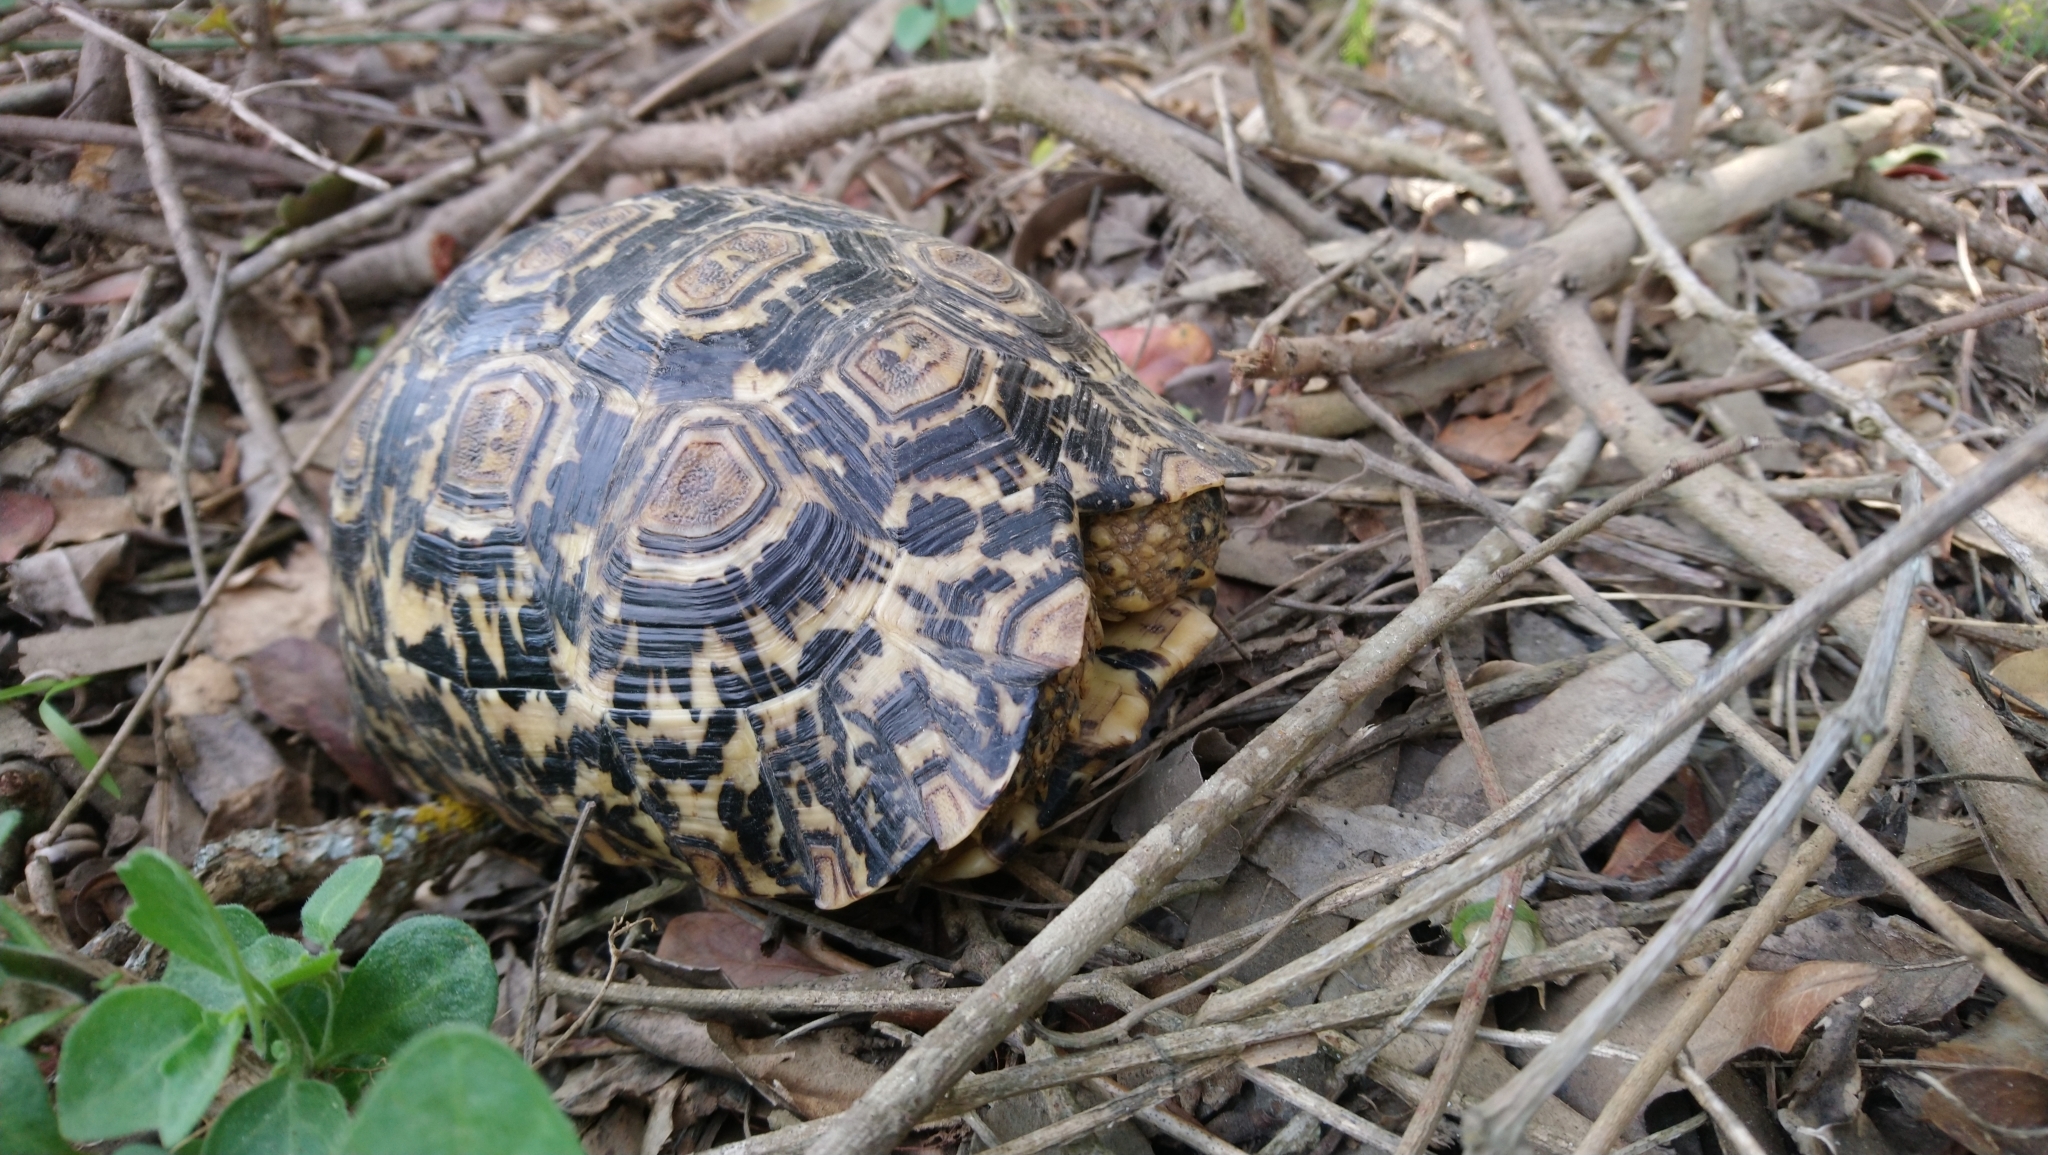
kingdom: Animalia
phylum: Chordata
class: Testudines
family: Testudinidae
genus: Stigmochelys
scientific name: Stigmochelys pardalis
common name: Leopard tortoise
